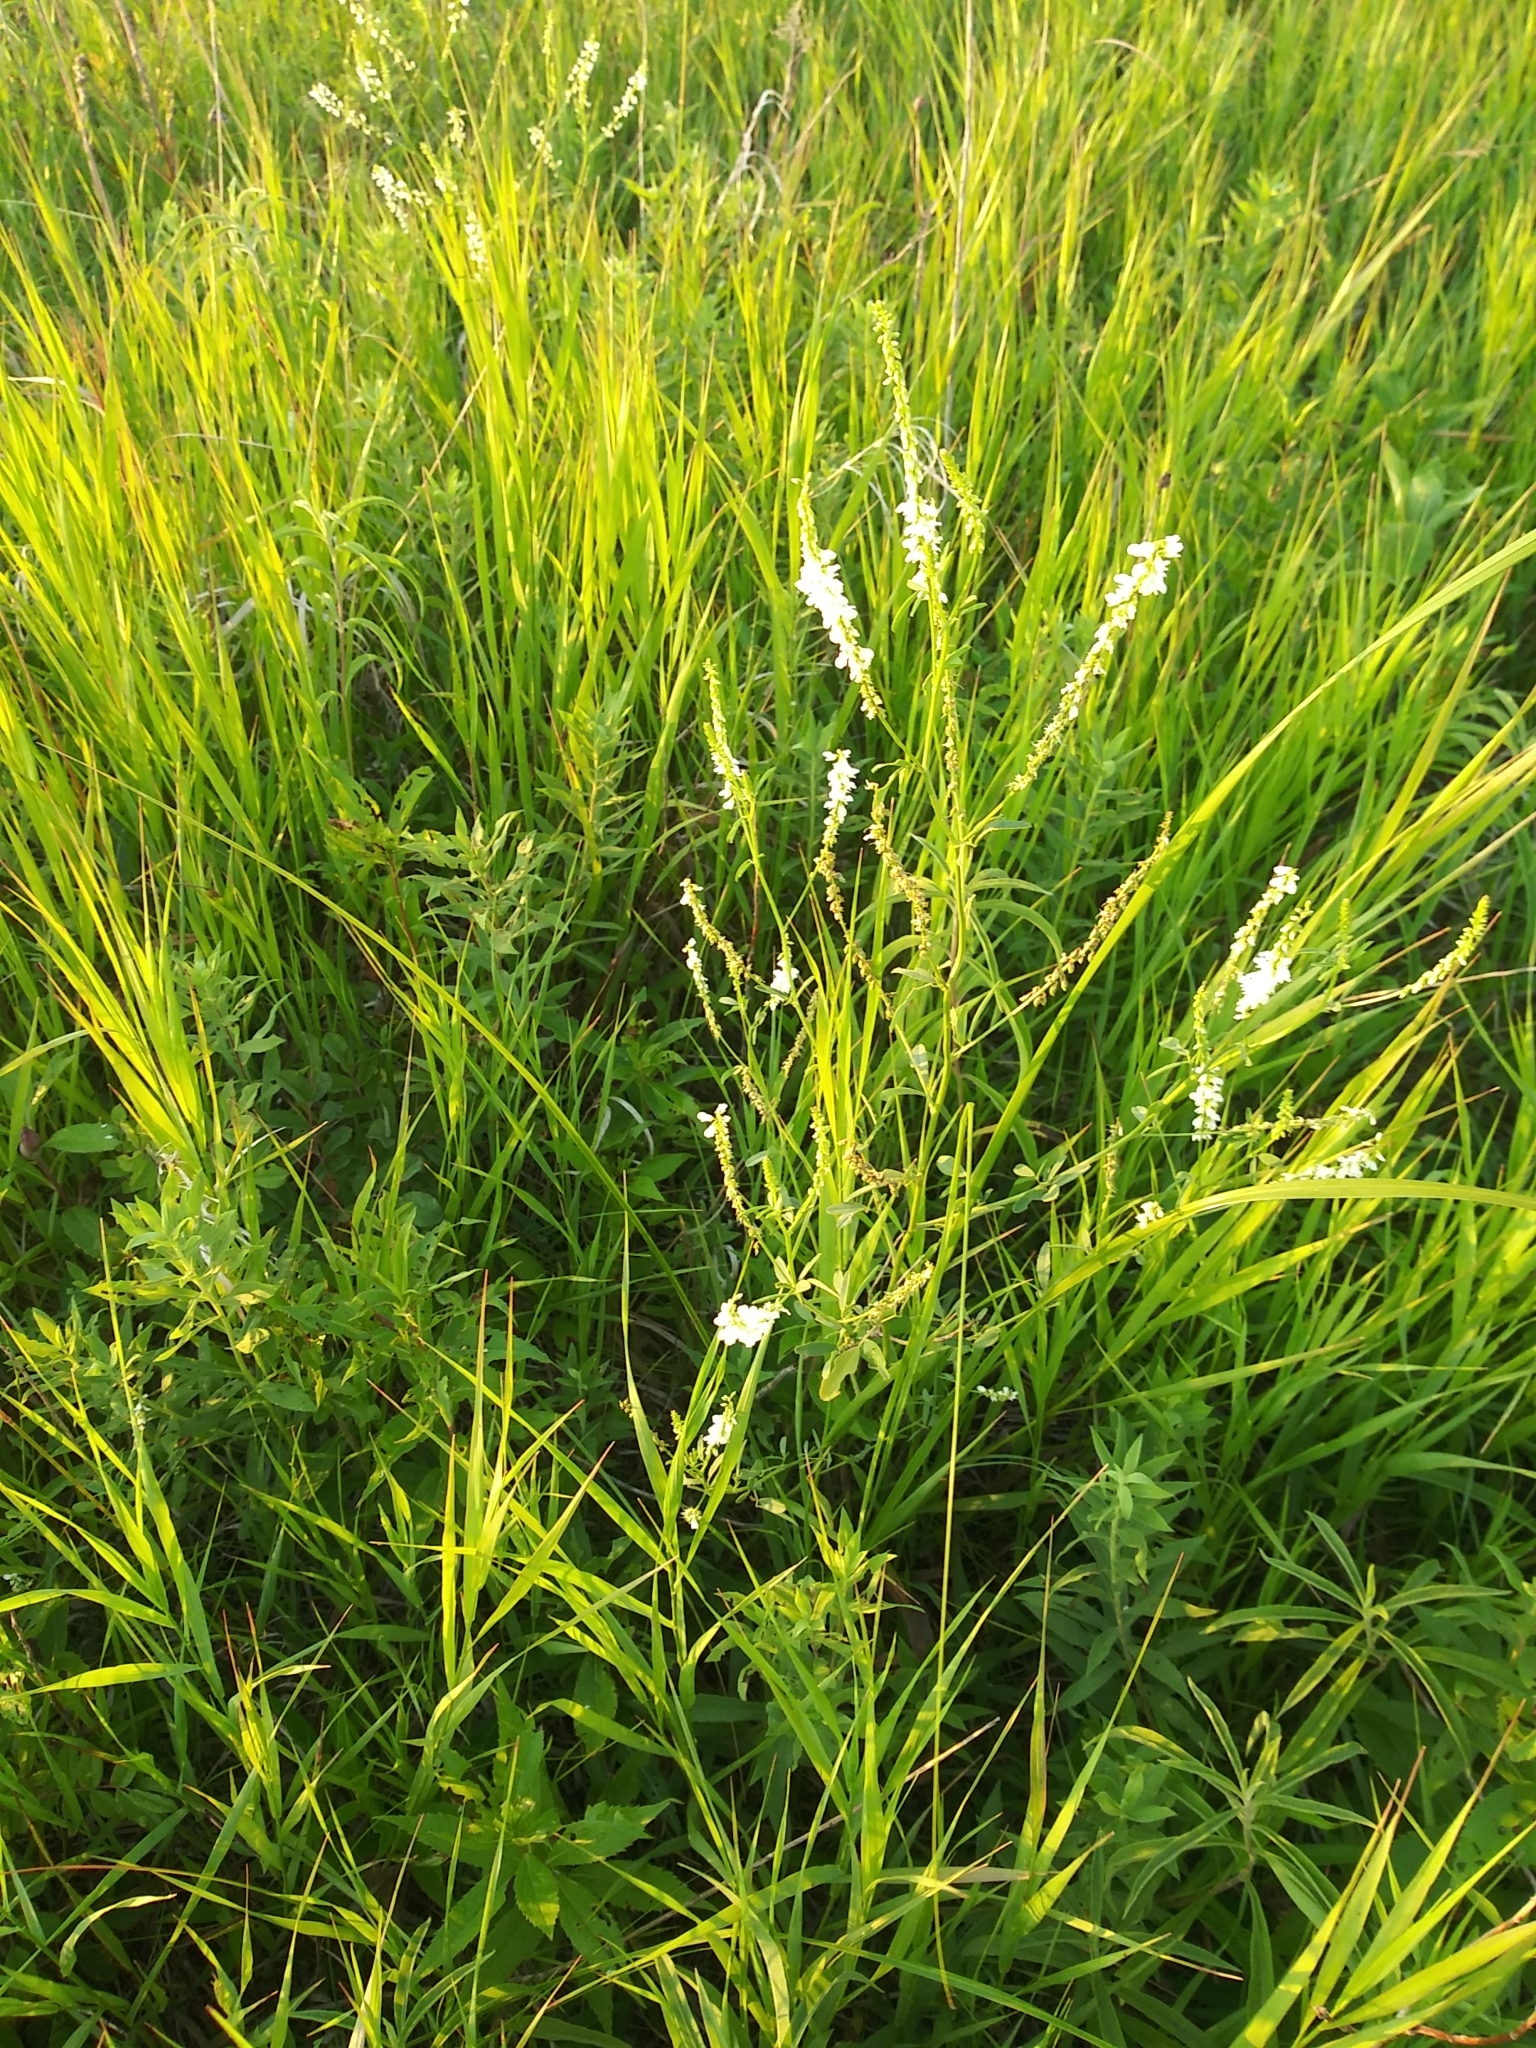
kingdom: Plantae
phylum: Tracheophyta
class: Magnoliopsida
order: Fabales
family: Fabaceae
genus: Melilotus
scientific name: Melilotus albus
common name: White melilot
